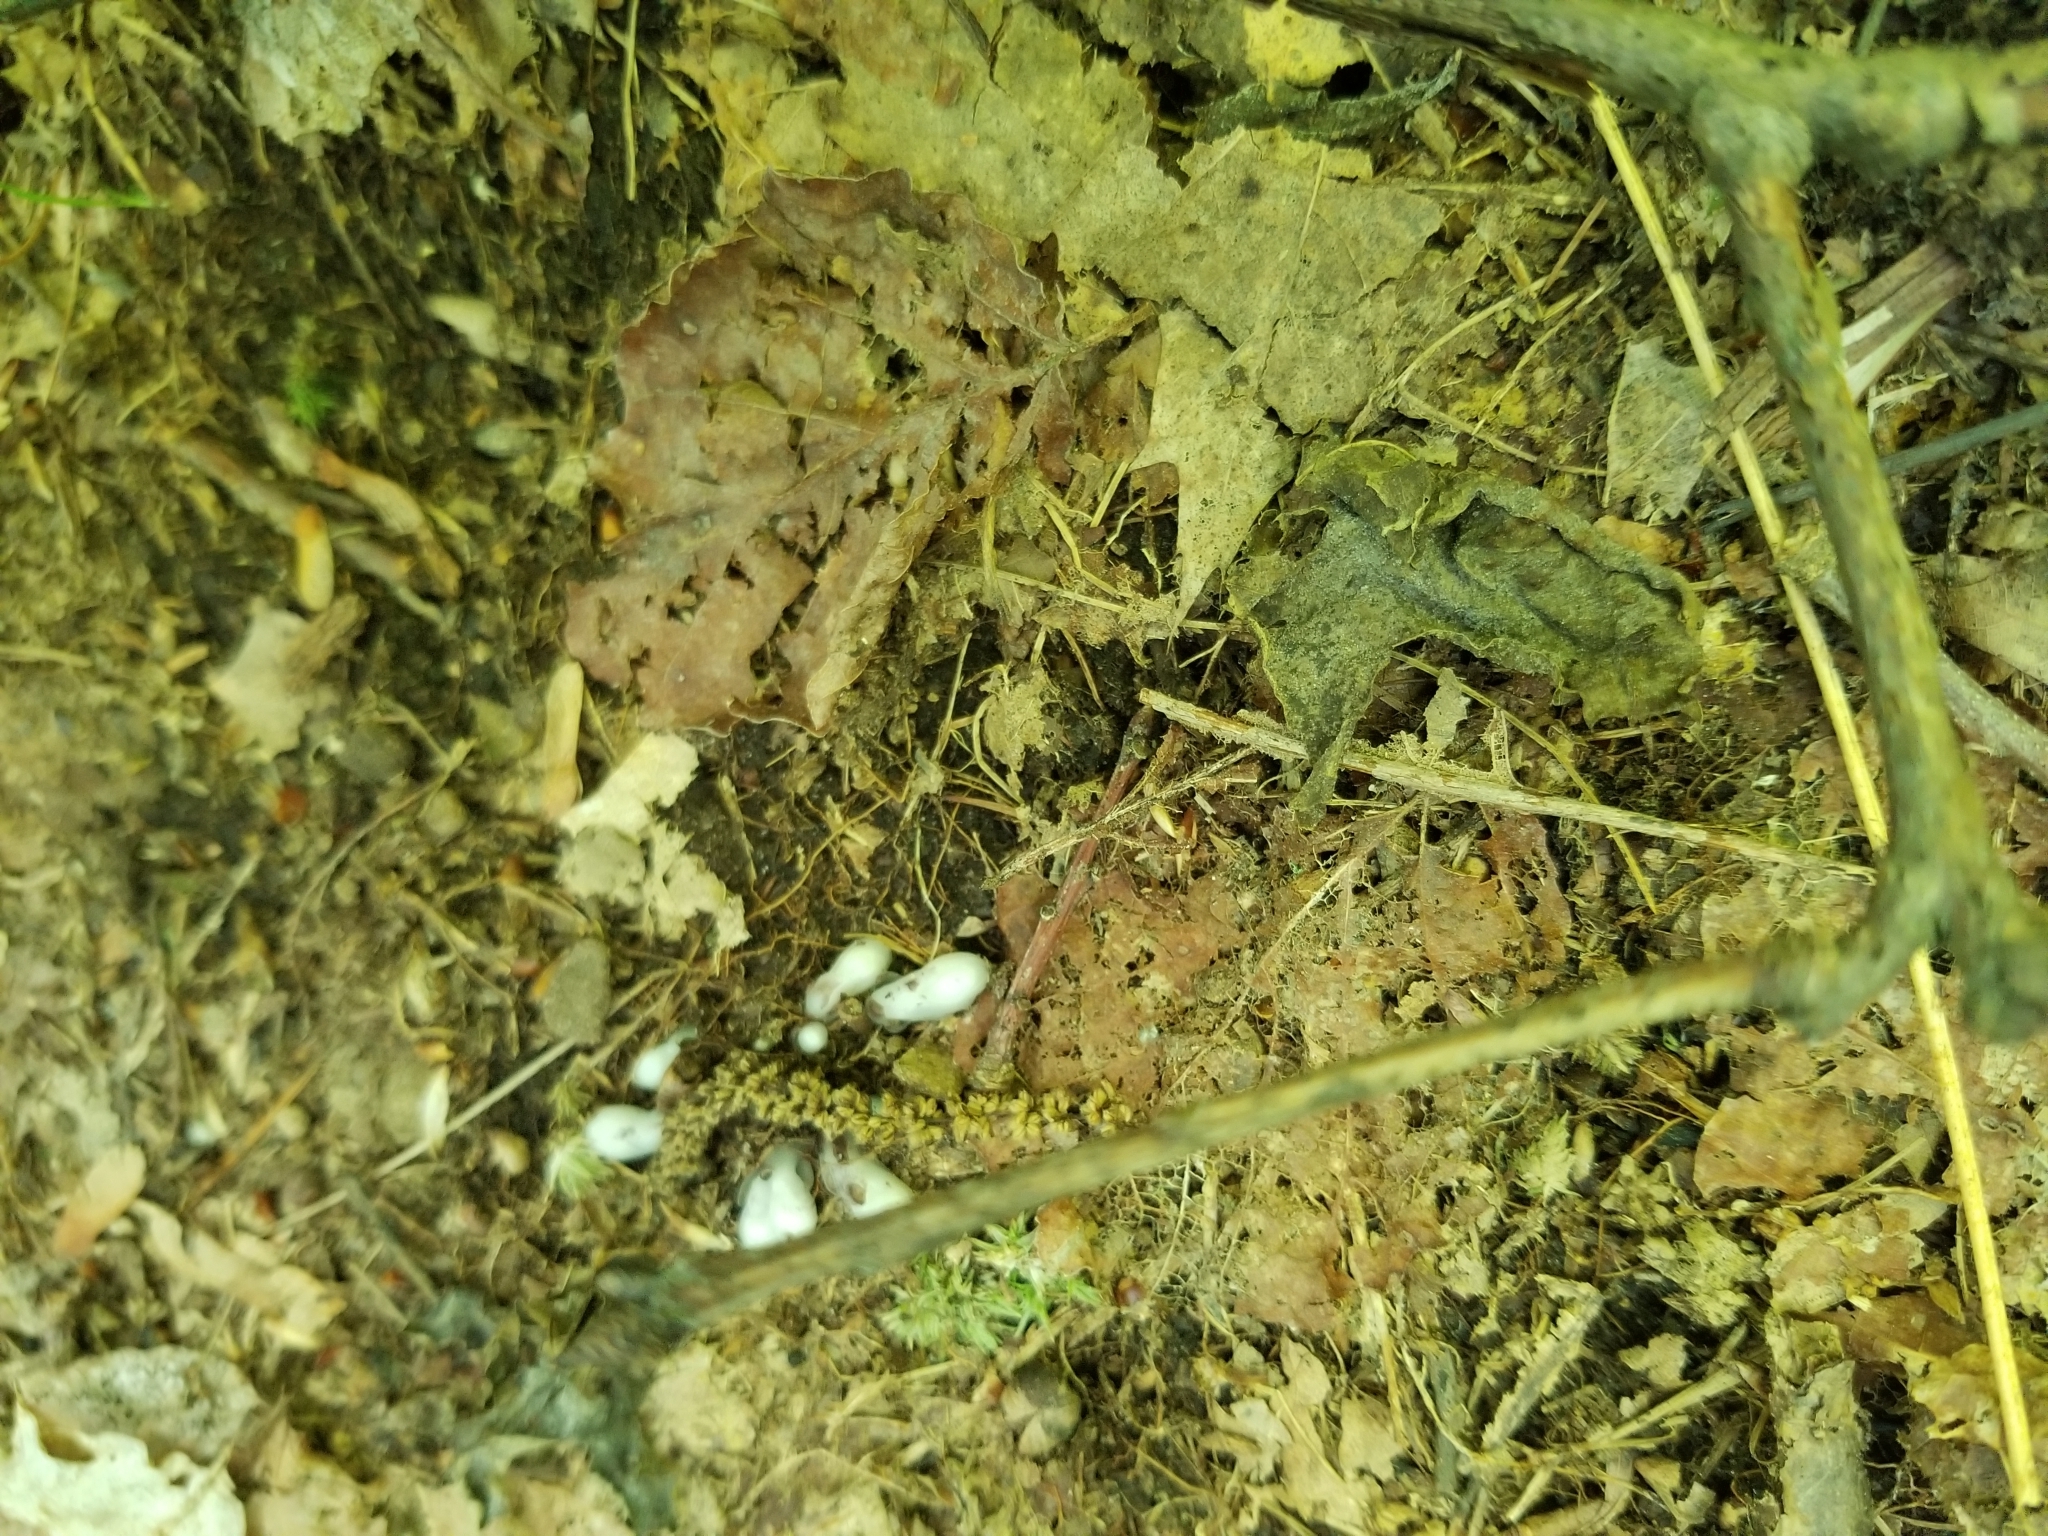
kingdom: Plantae
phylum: Tracheophyta
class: Magnoliopsida
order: Ericales
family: Ericaceae
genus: Monotropa
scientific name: Monotropa uniflora
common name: Convulsion root
